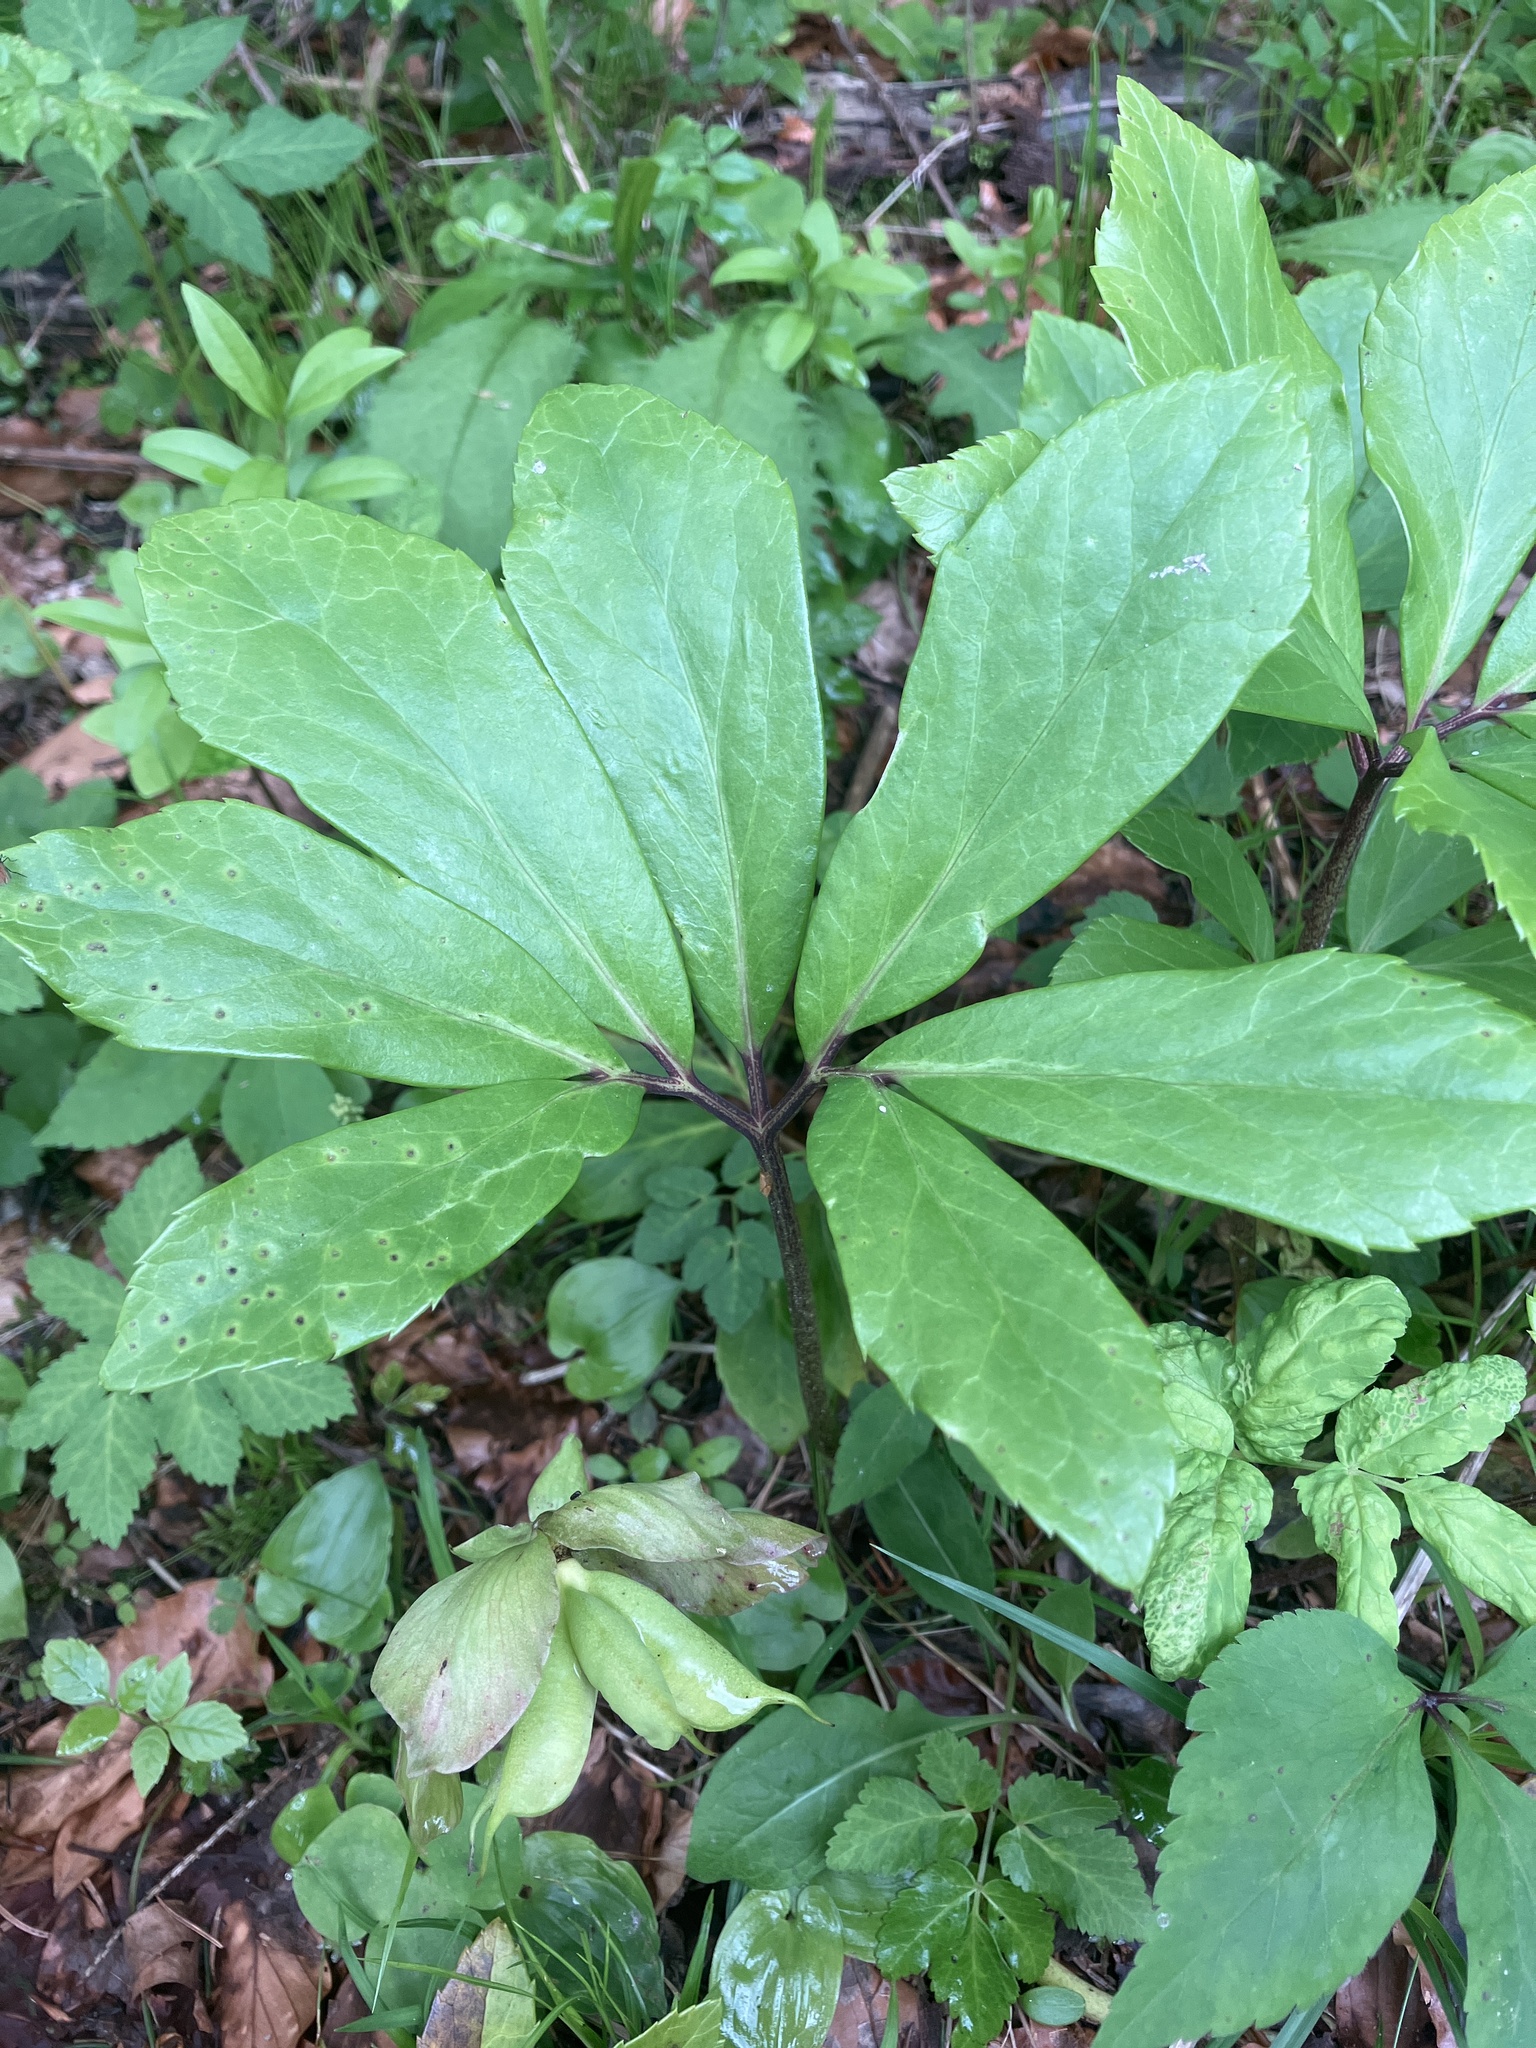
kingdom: Plantae
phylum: Tracheophyta
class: Magnoliopsida
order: Ranunculales
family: Ranunculaceae
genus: Helleborus
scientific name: Helleborus niger
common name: Black hellebore
